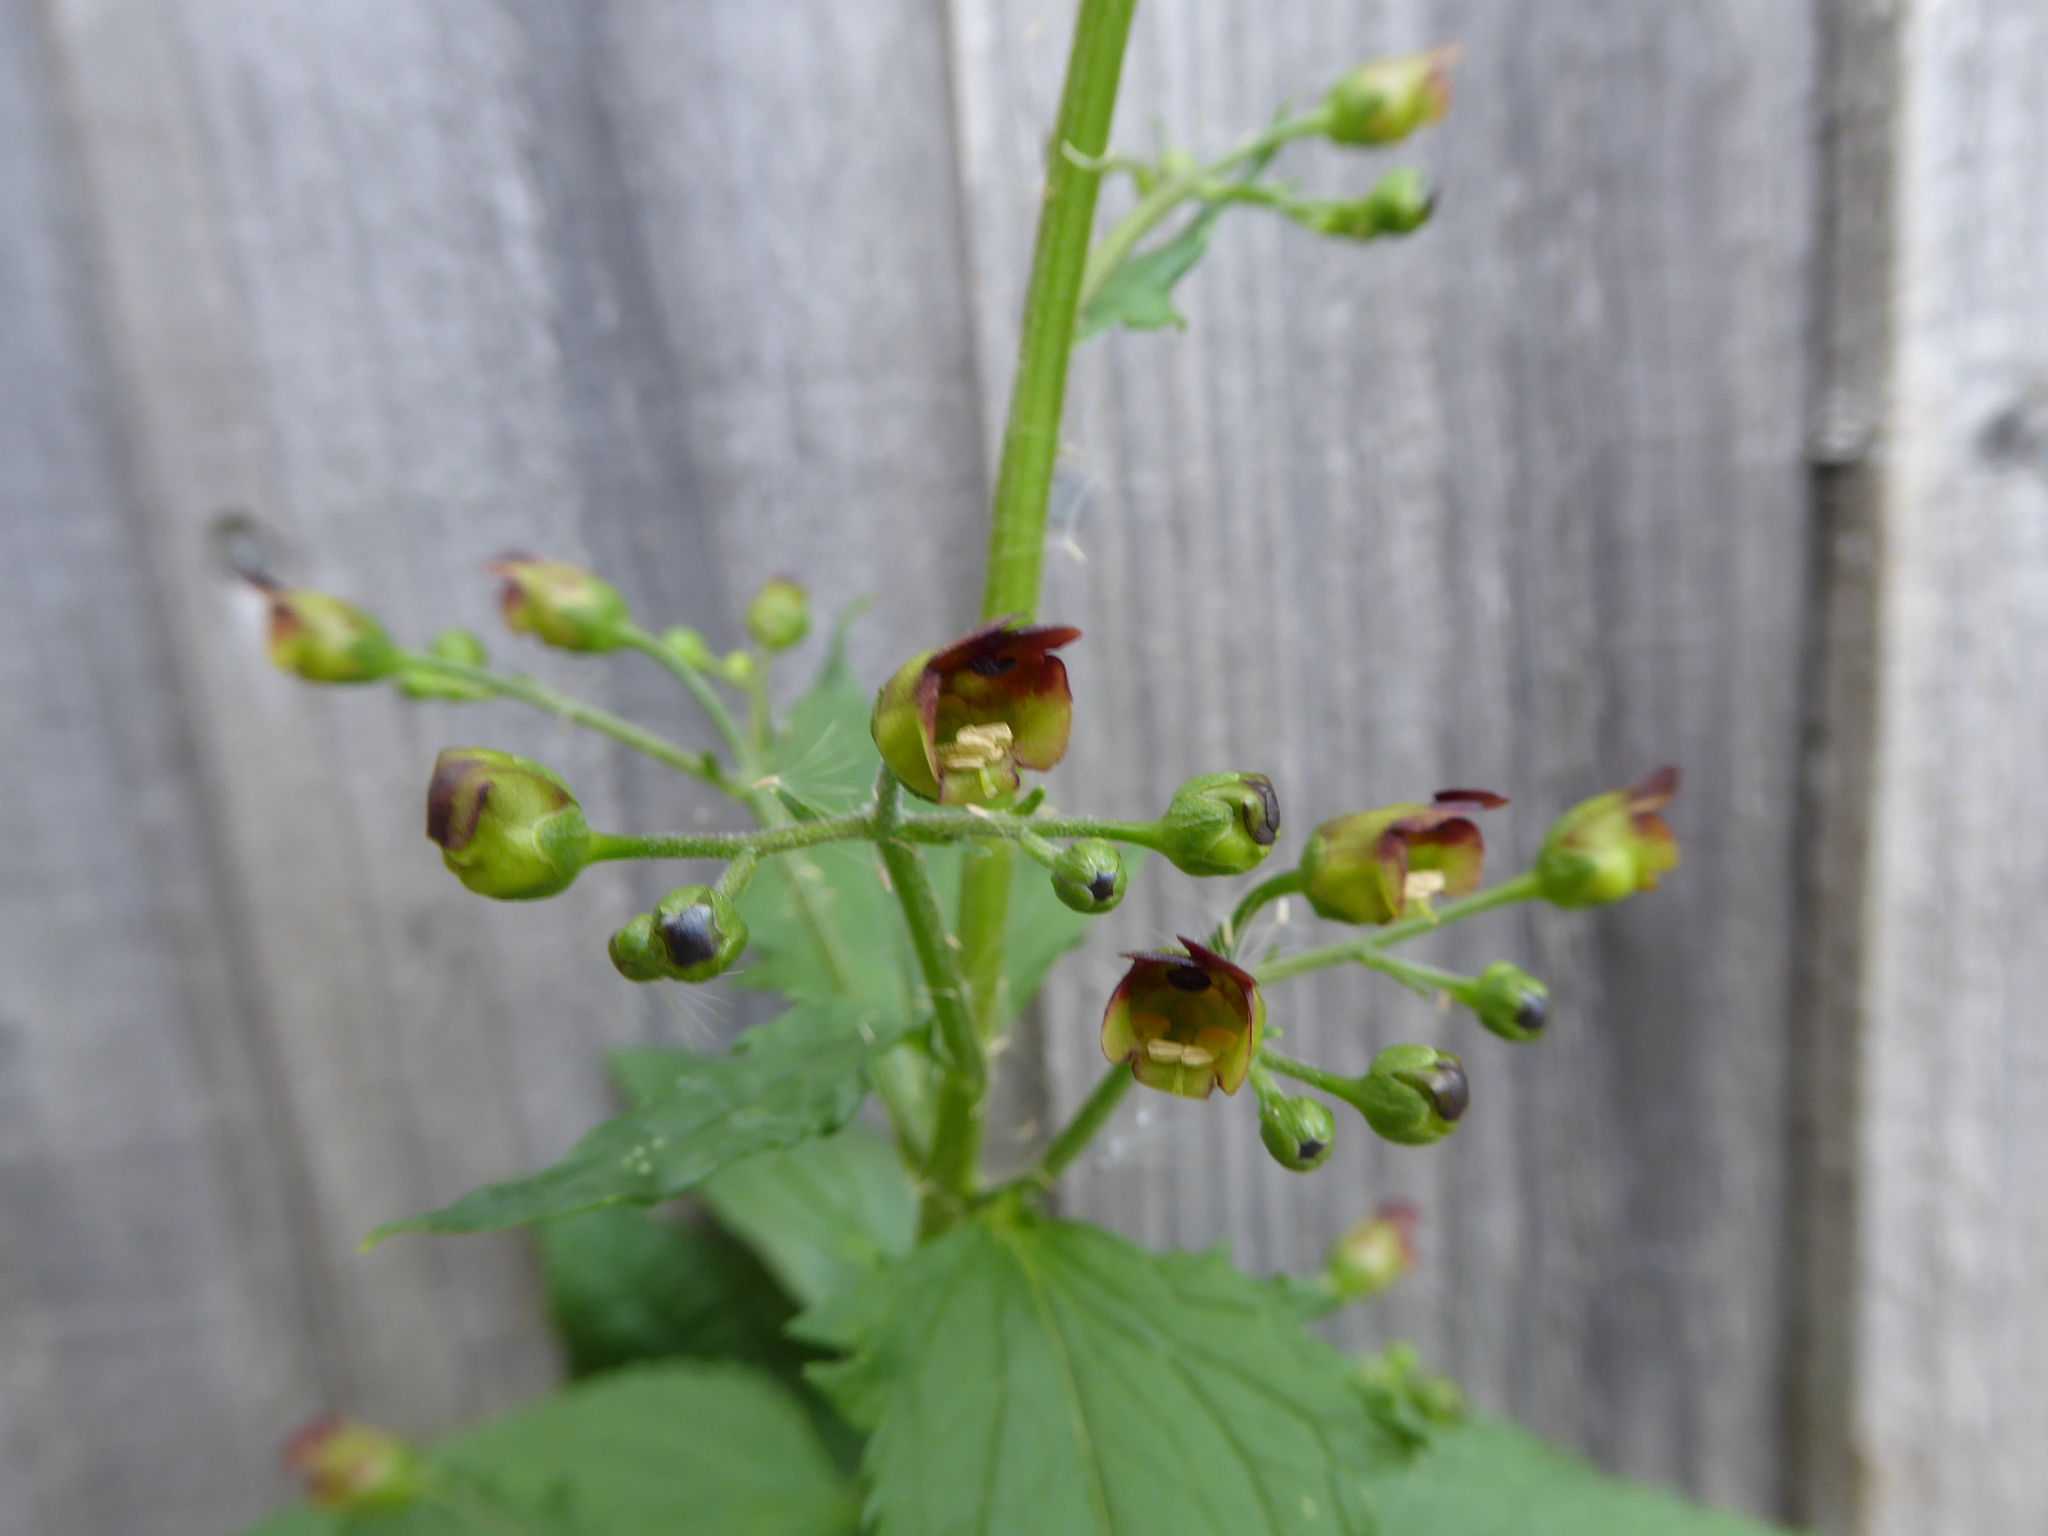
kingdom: Plantae
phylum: Tracheophyta
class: Magnoliopsida
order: Lamiales
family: Scrophulariaceae
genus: Scrophularia
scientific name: Scrophularia nodosa
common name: Common figwort
